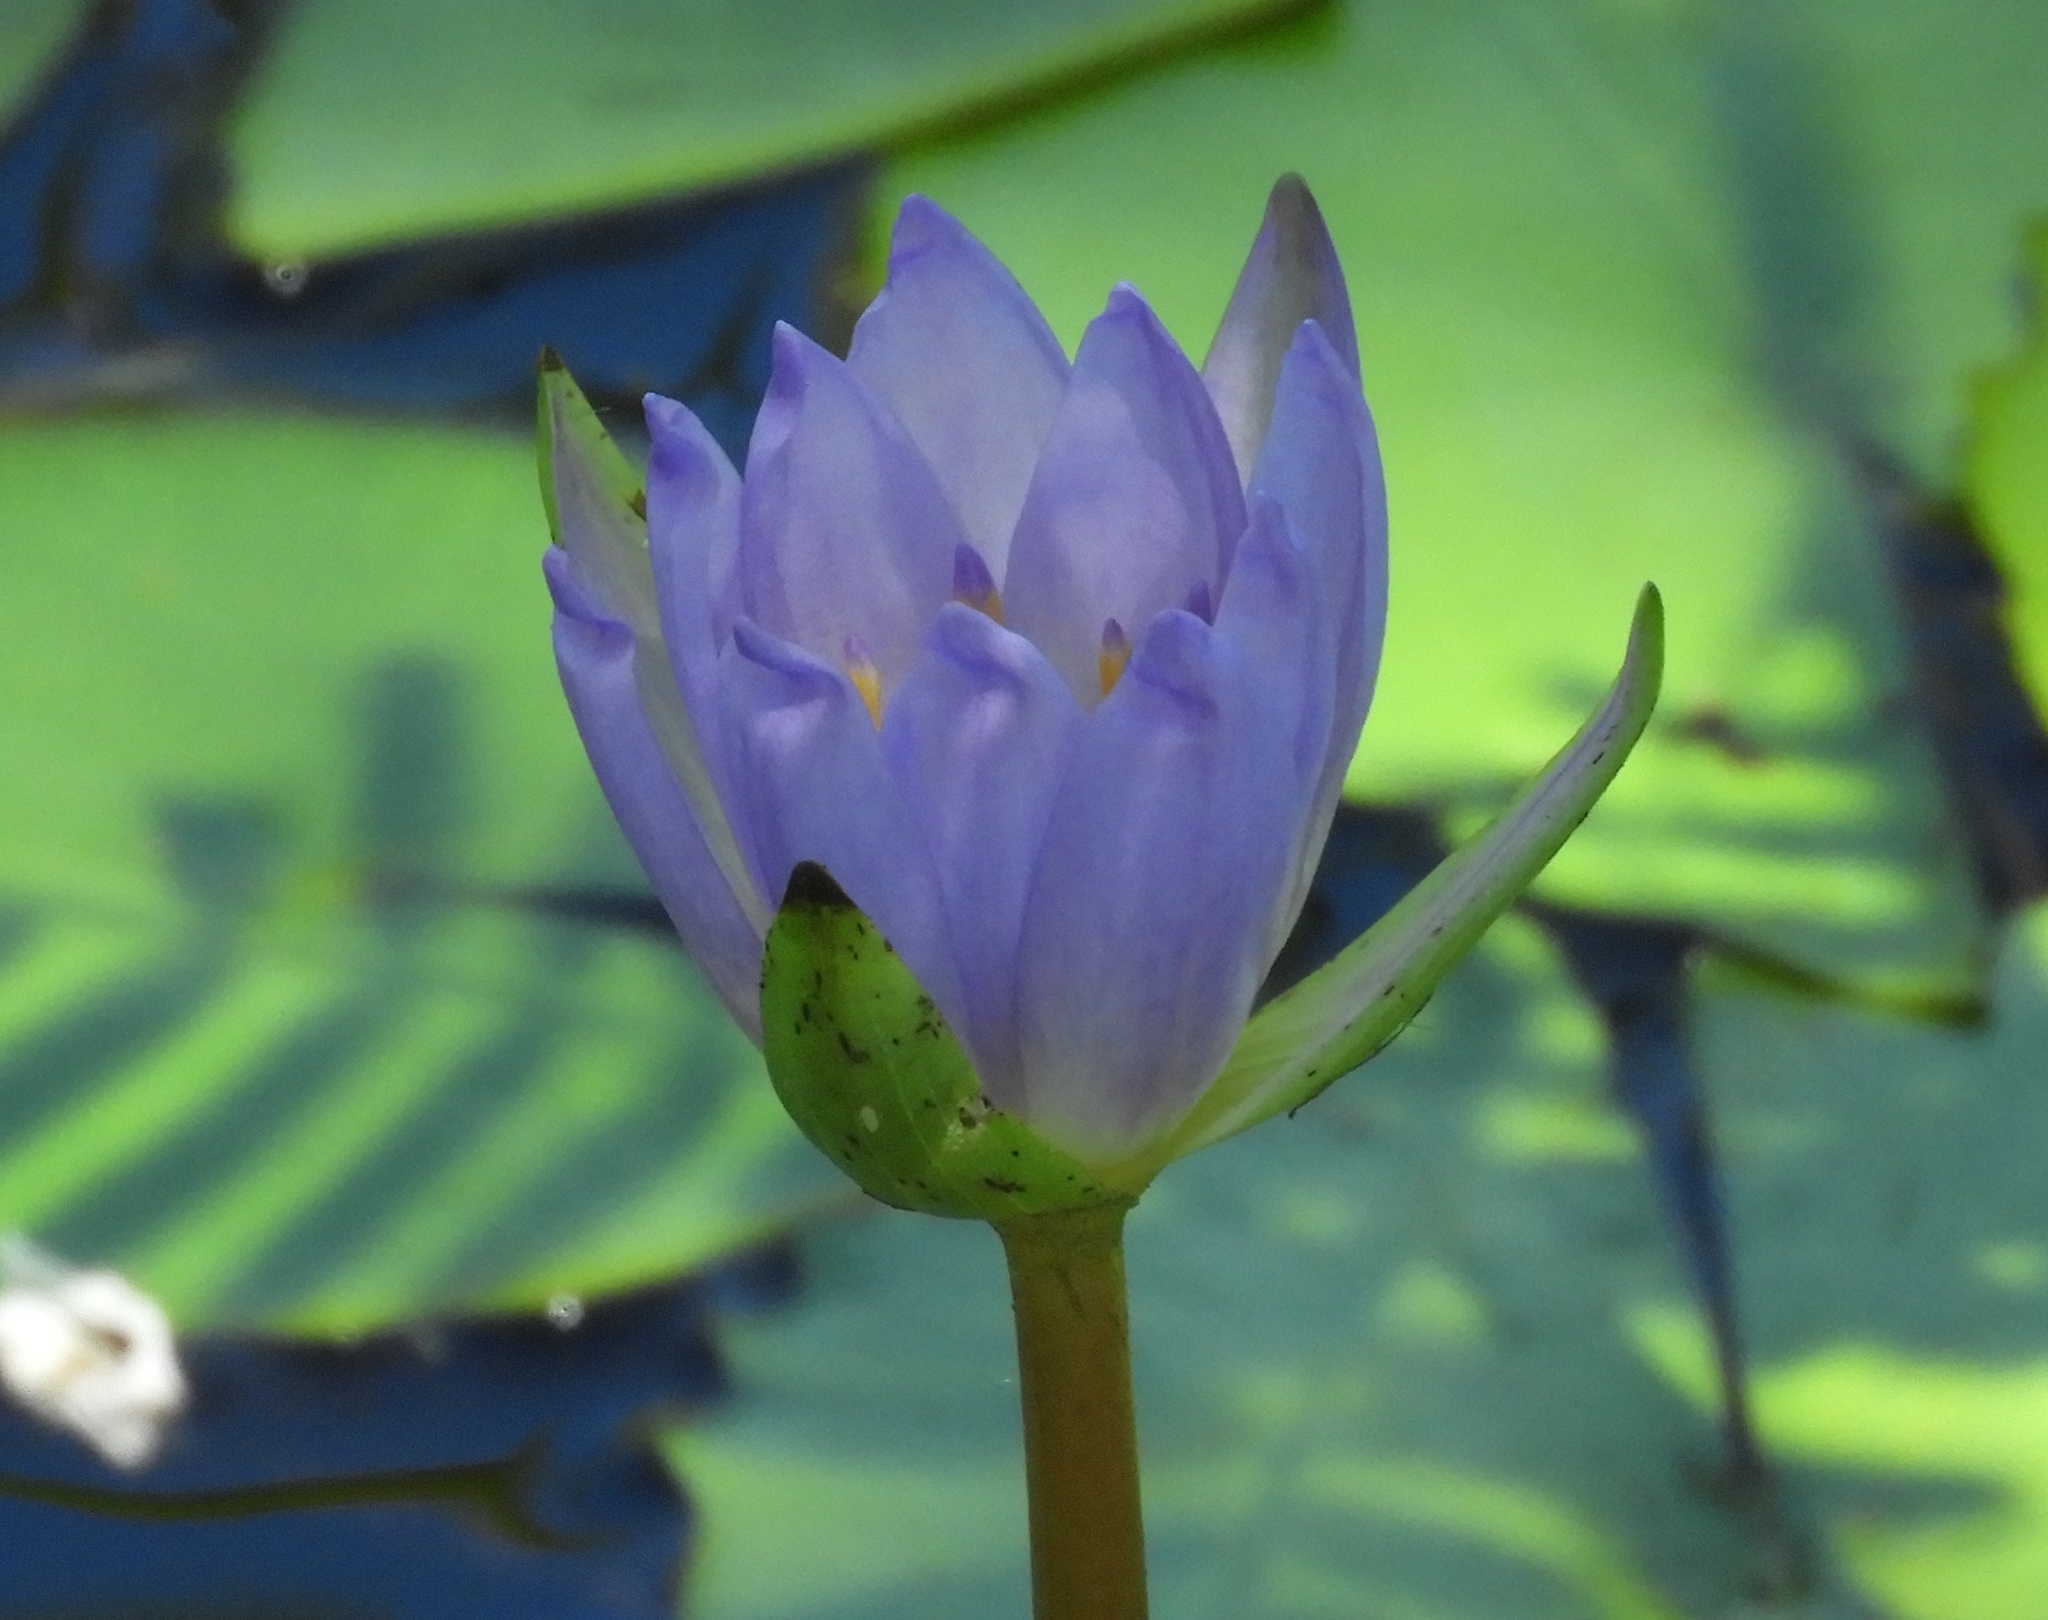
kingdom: Plantae
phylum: Tracheophyta
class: Magnoliopsida
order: Nymphaeales
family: Nymphaeaceae
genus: Nymphaea
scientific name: Nymphaea elegans
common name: Blue water-lily
